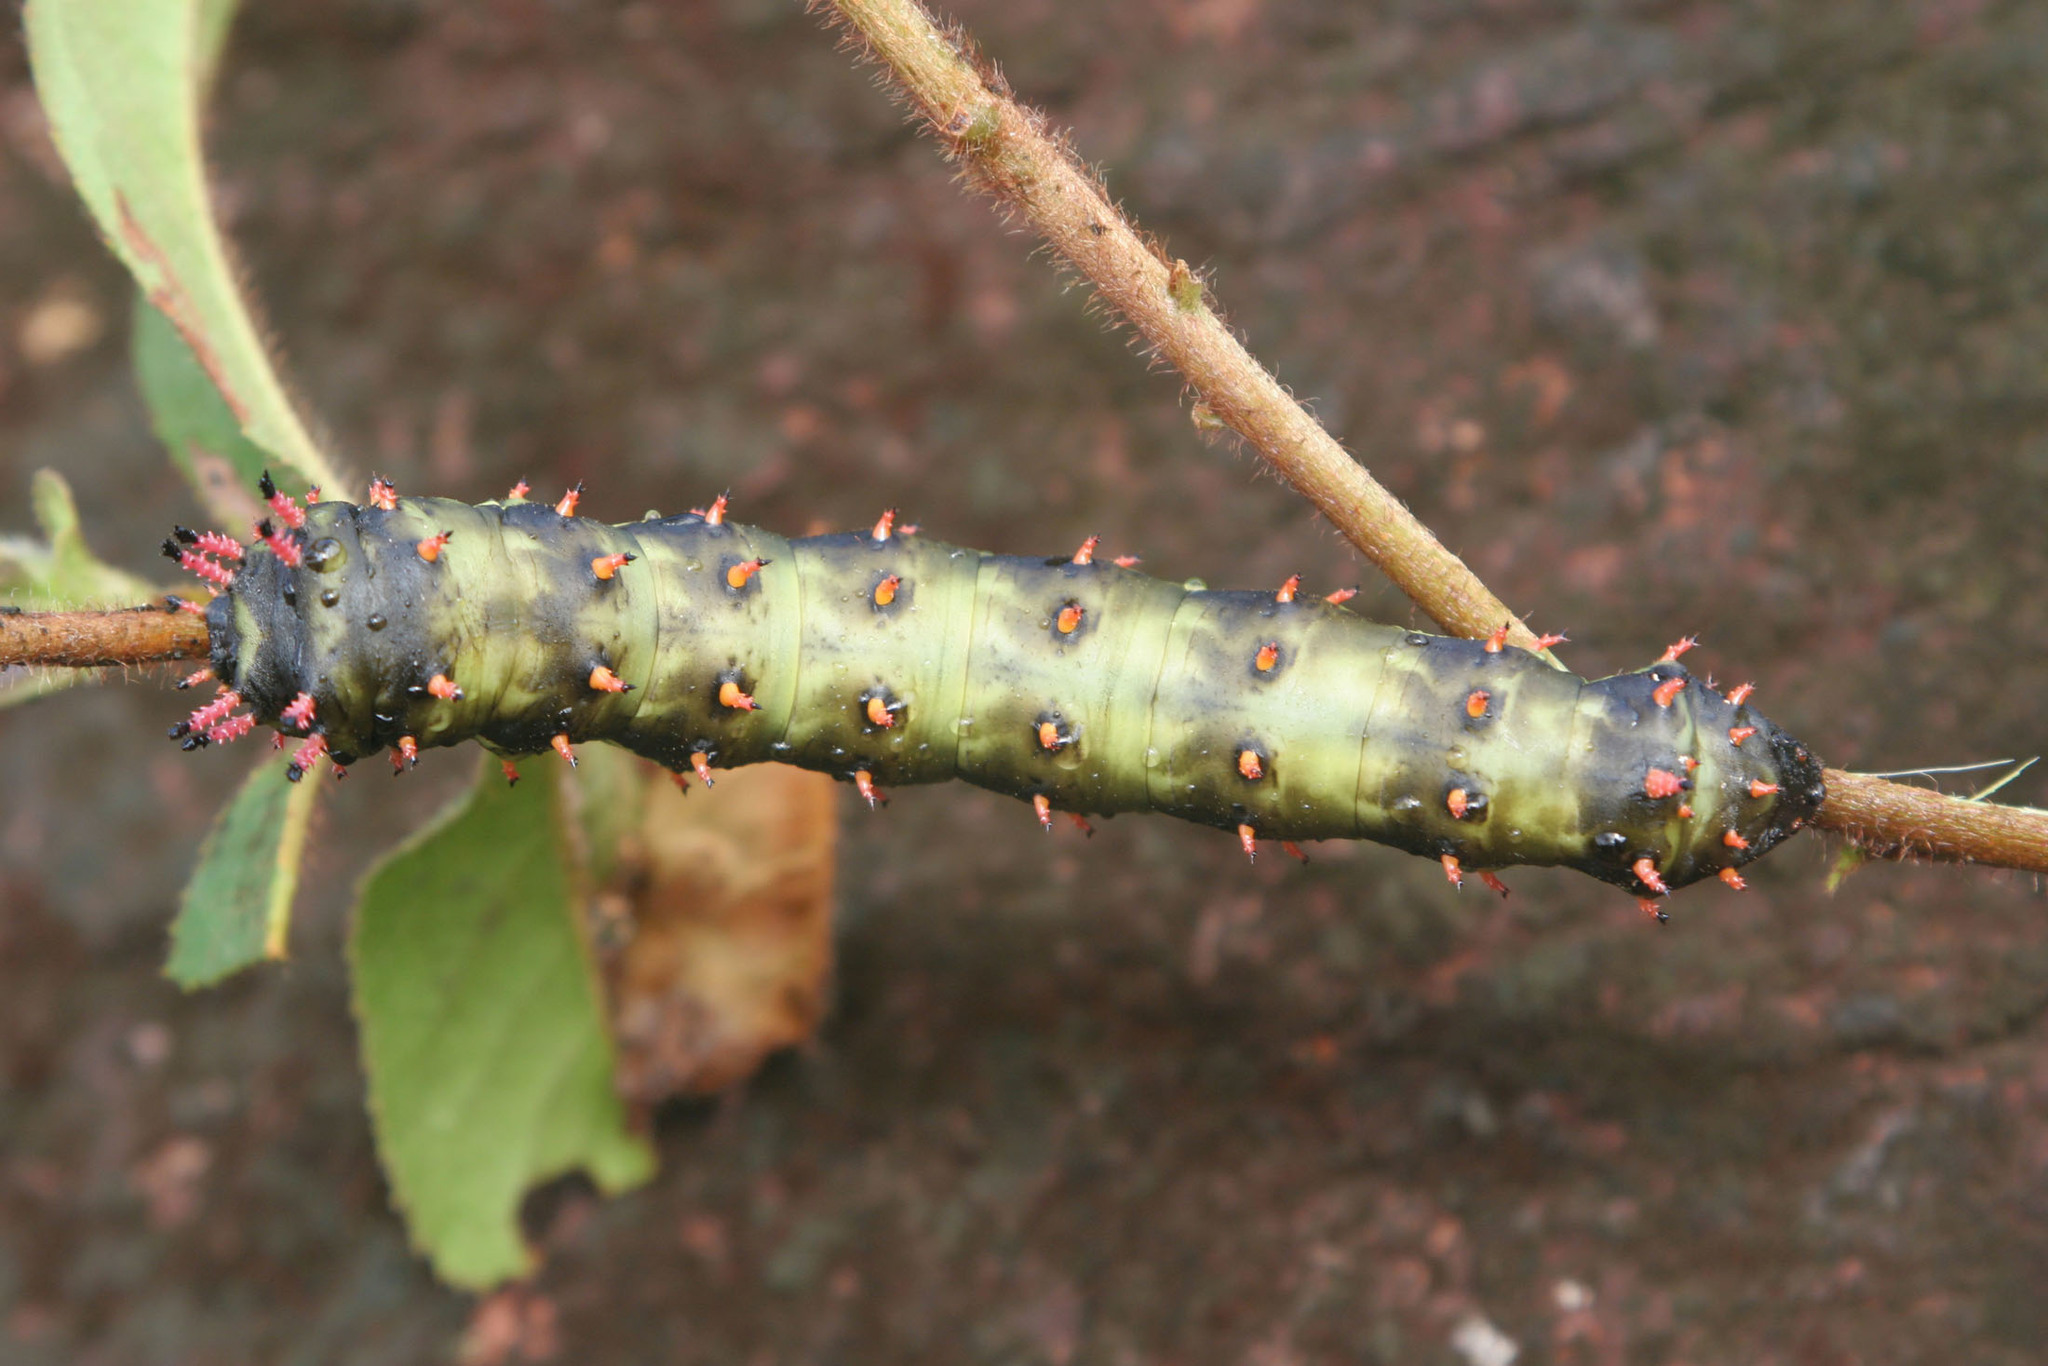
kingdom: Animalia
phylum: Arthropoda
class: Insecta
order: Lepidoptera
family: Saturniidae
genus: Citheronia
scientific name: Citheronia laocoon
